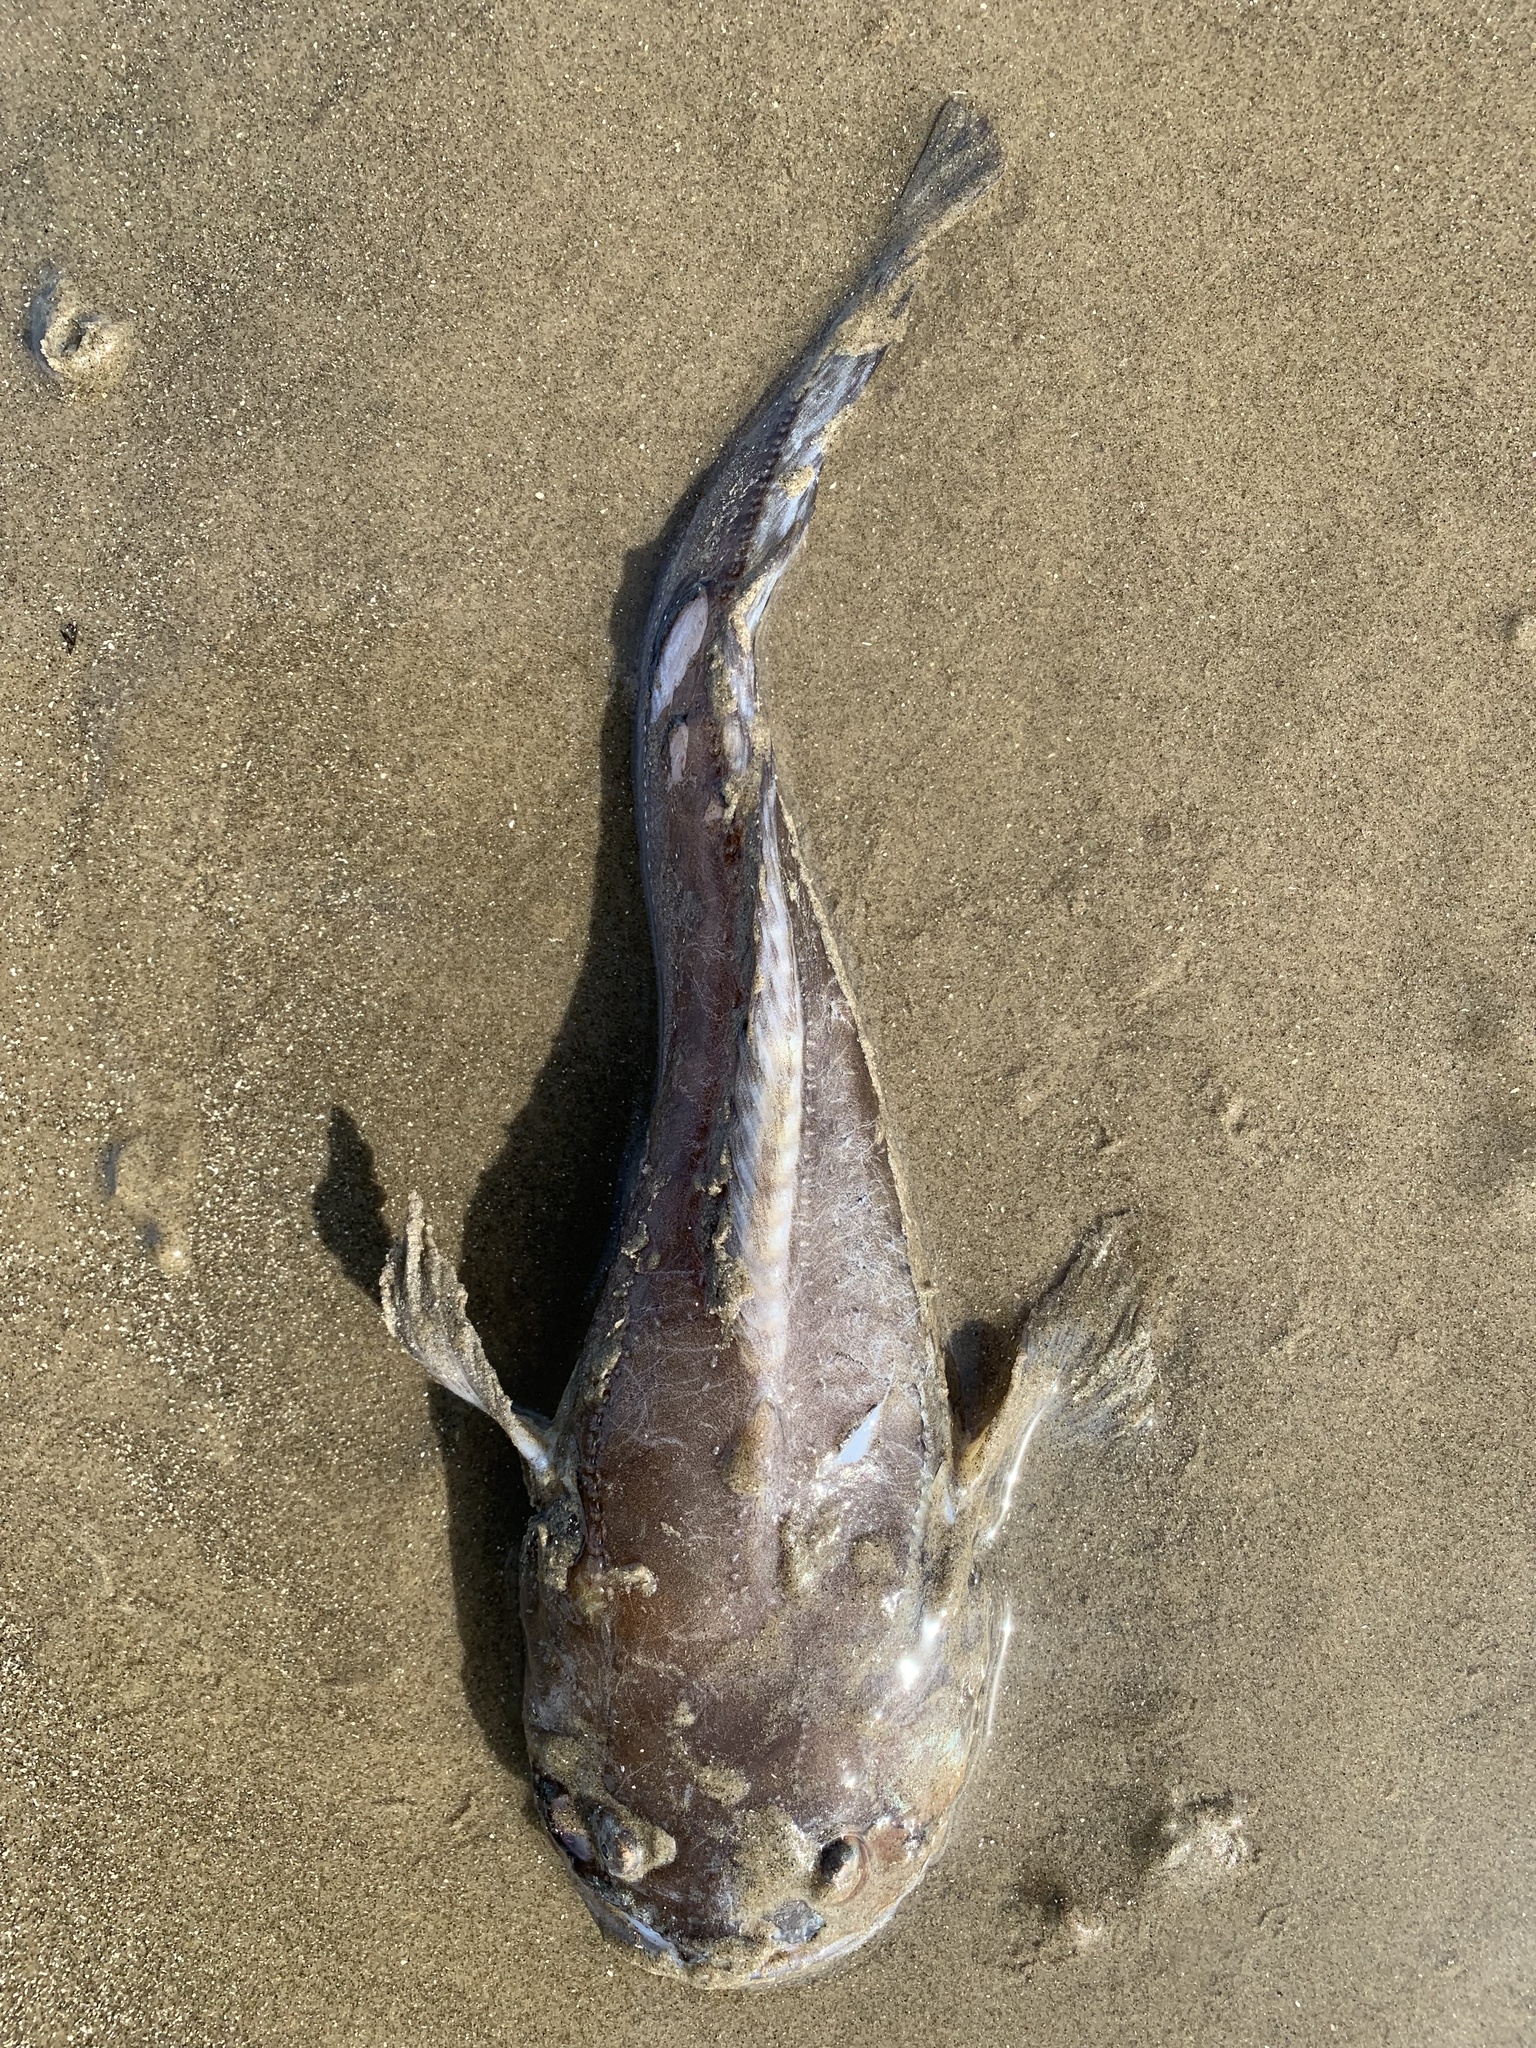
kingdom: Animalia
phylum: Chordata
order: Batrachoidiformes
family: Batrachoididae
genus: Porichthys
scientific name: Porichthys porosissimus
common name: Toadfish
